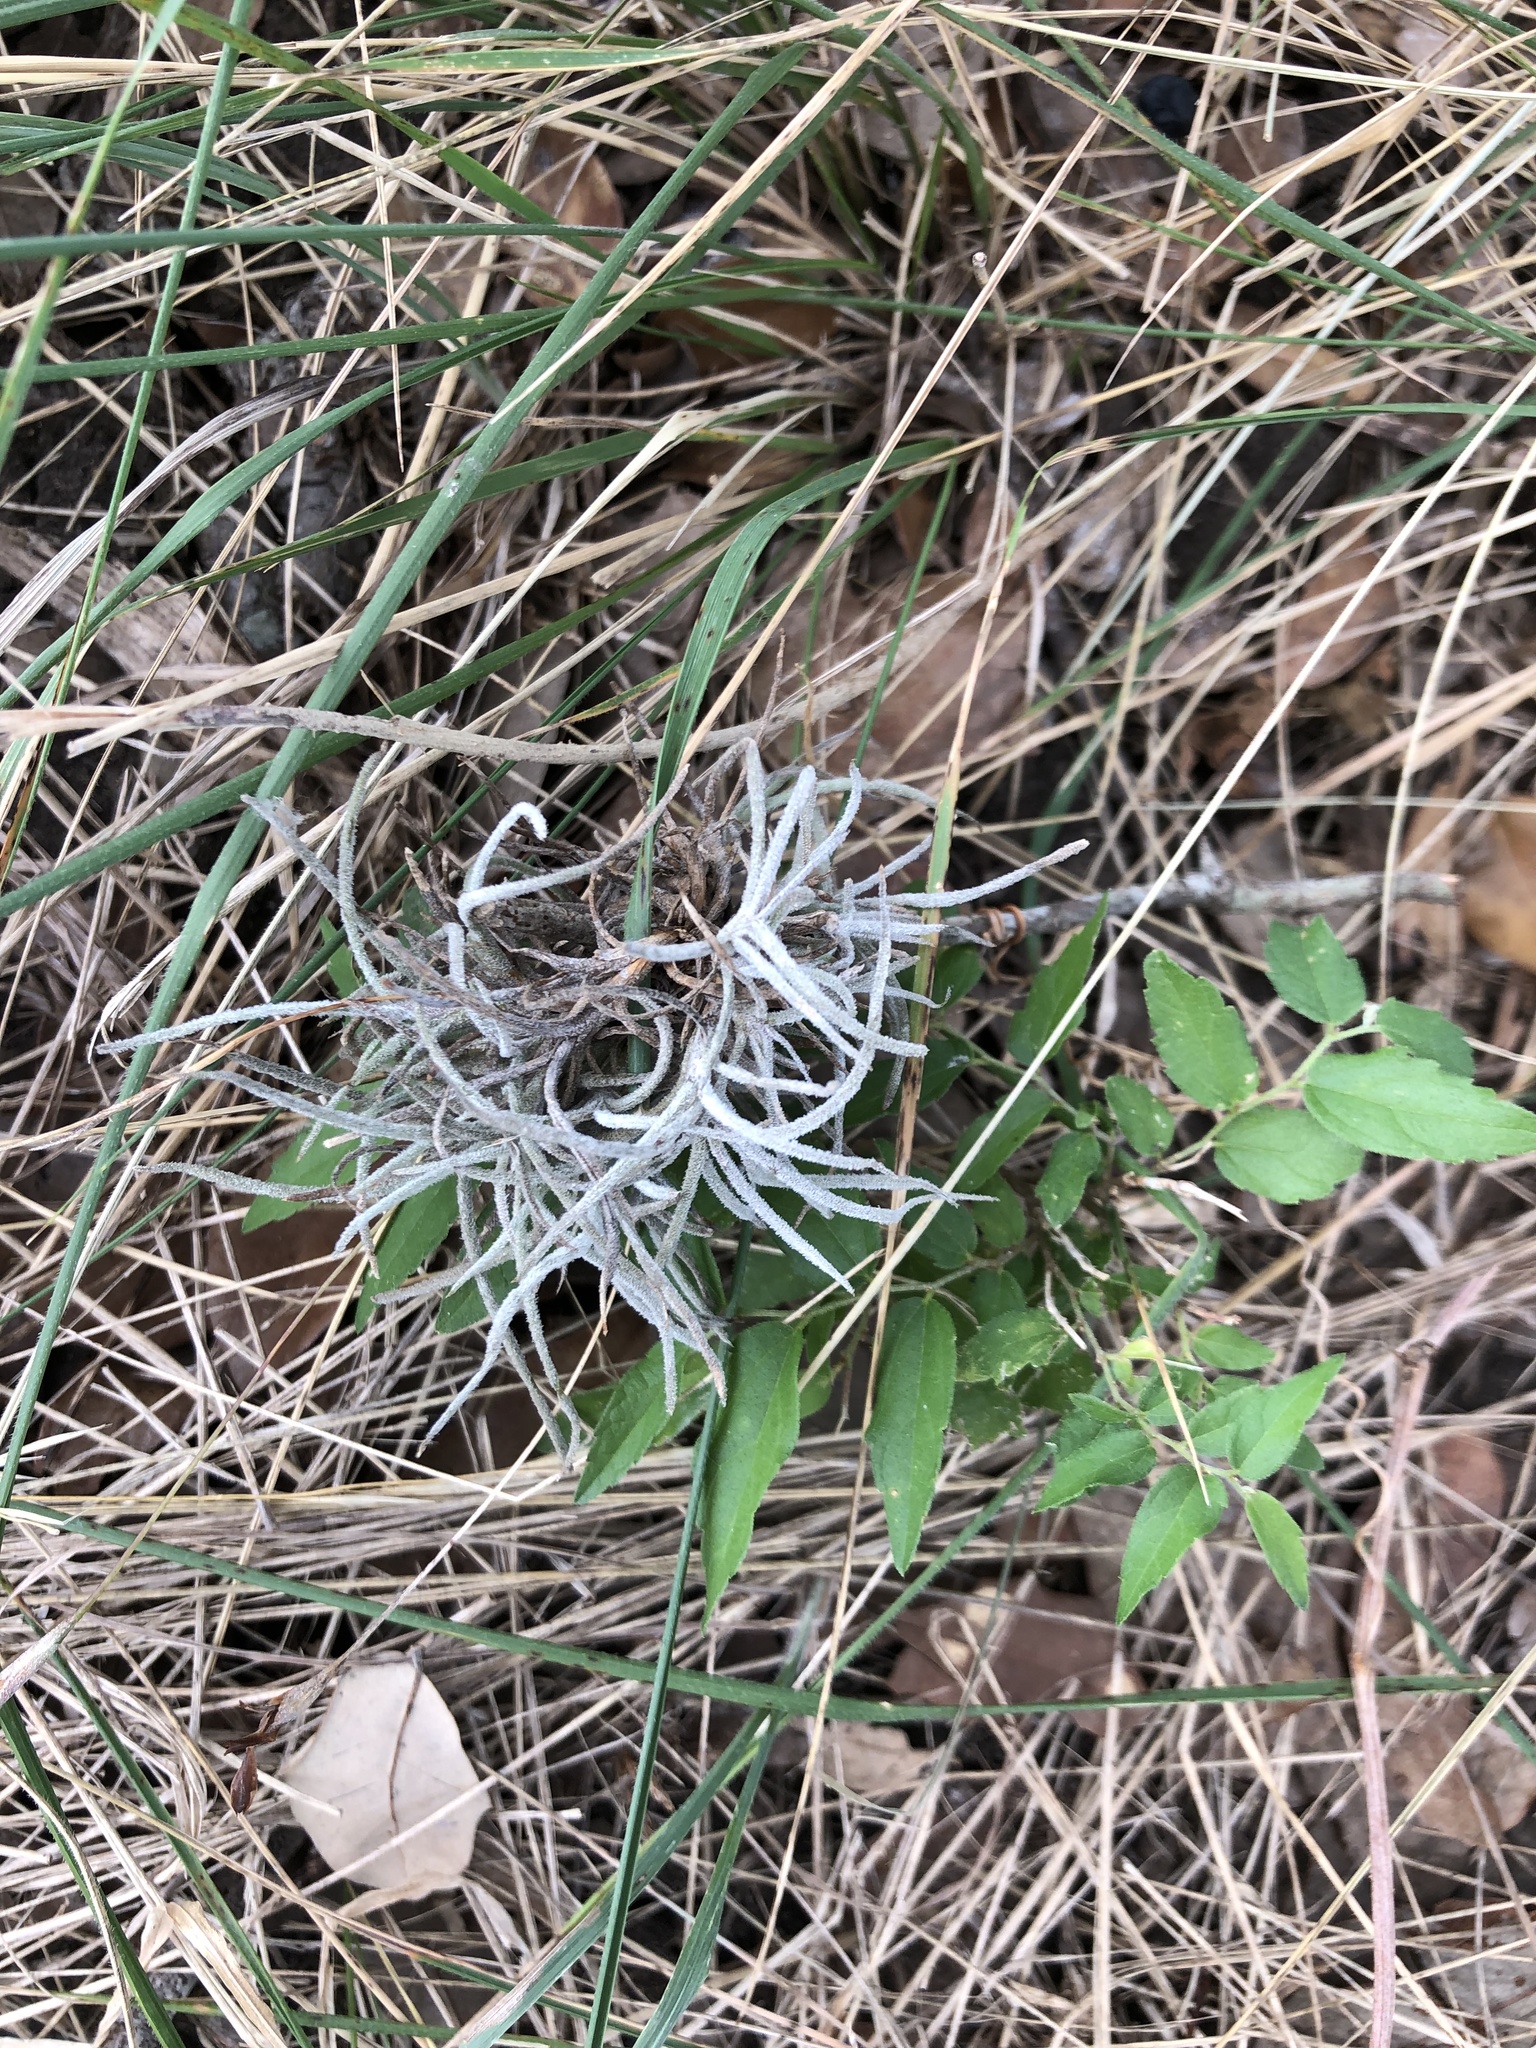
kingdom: Plantae
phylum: Tracheophyta
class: Liliopsida
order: Poales
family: Bromeliaceae
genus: Tillandsia
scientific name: Tillandsia recurvata
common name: Small ballmoss
